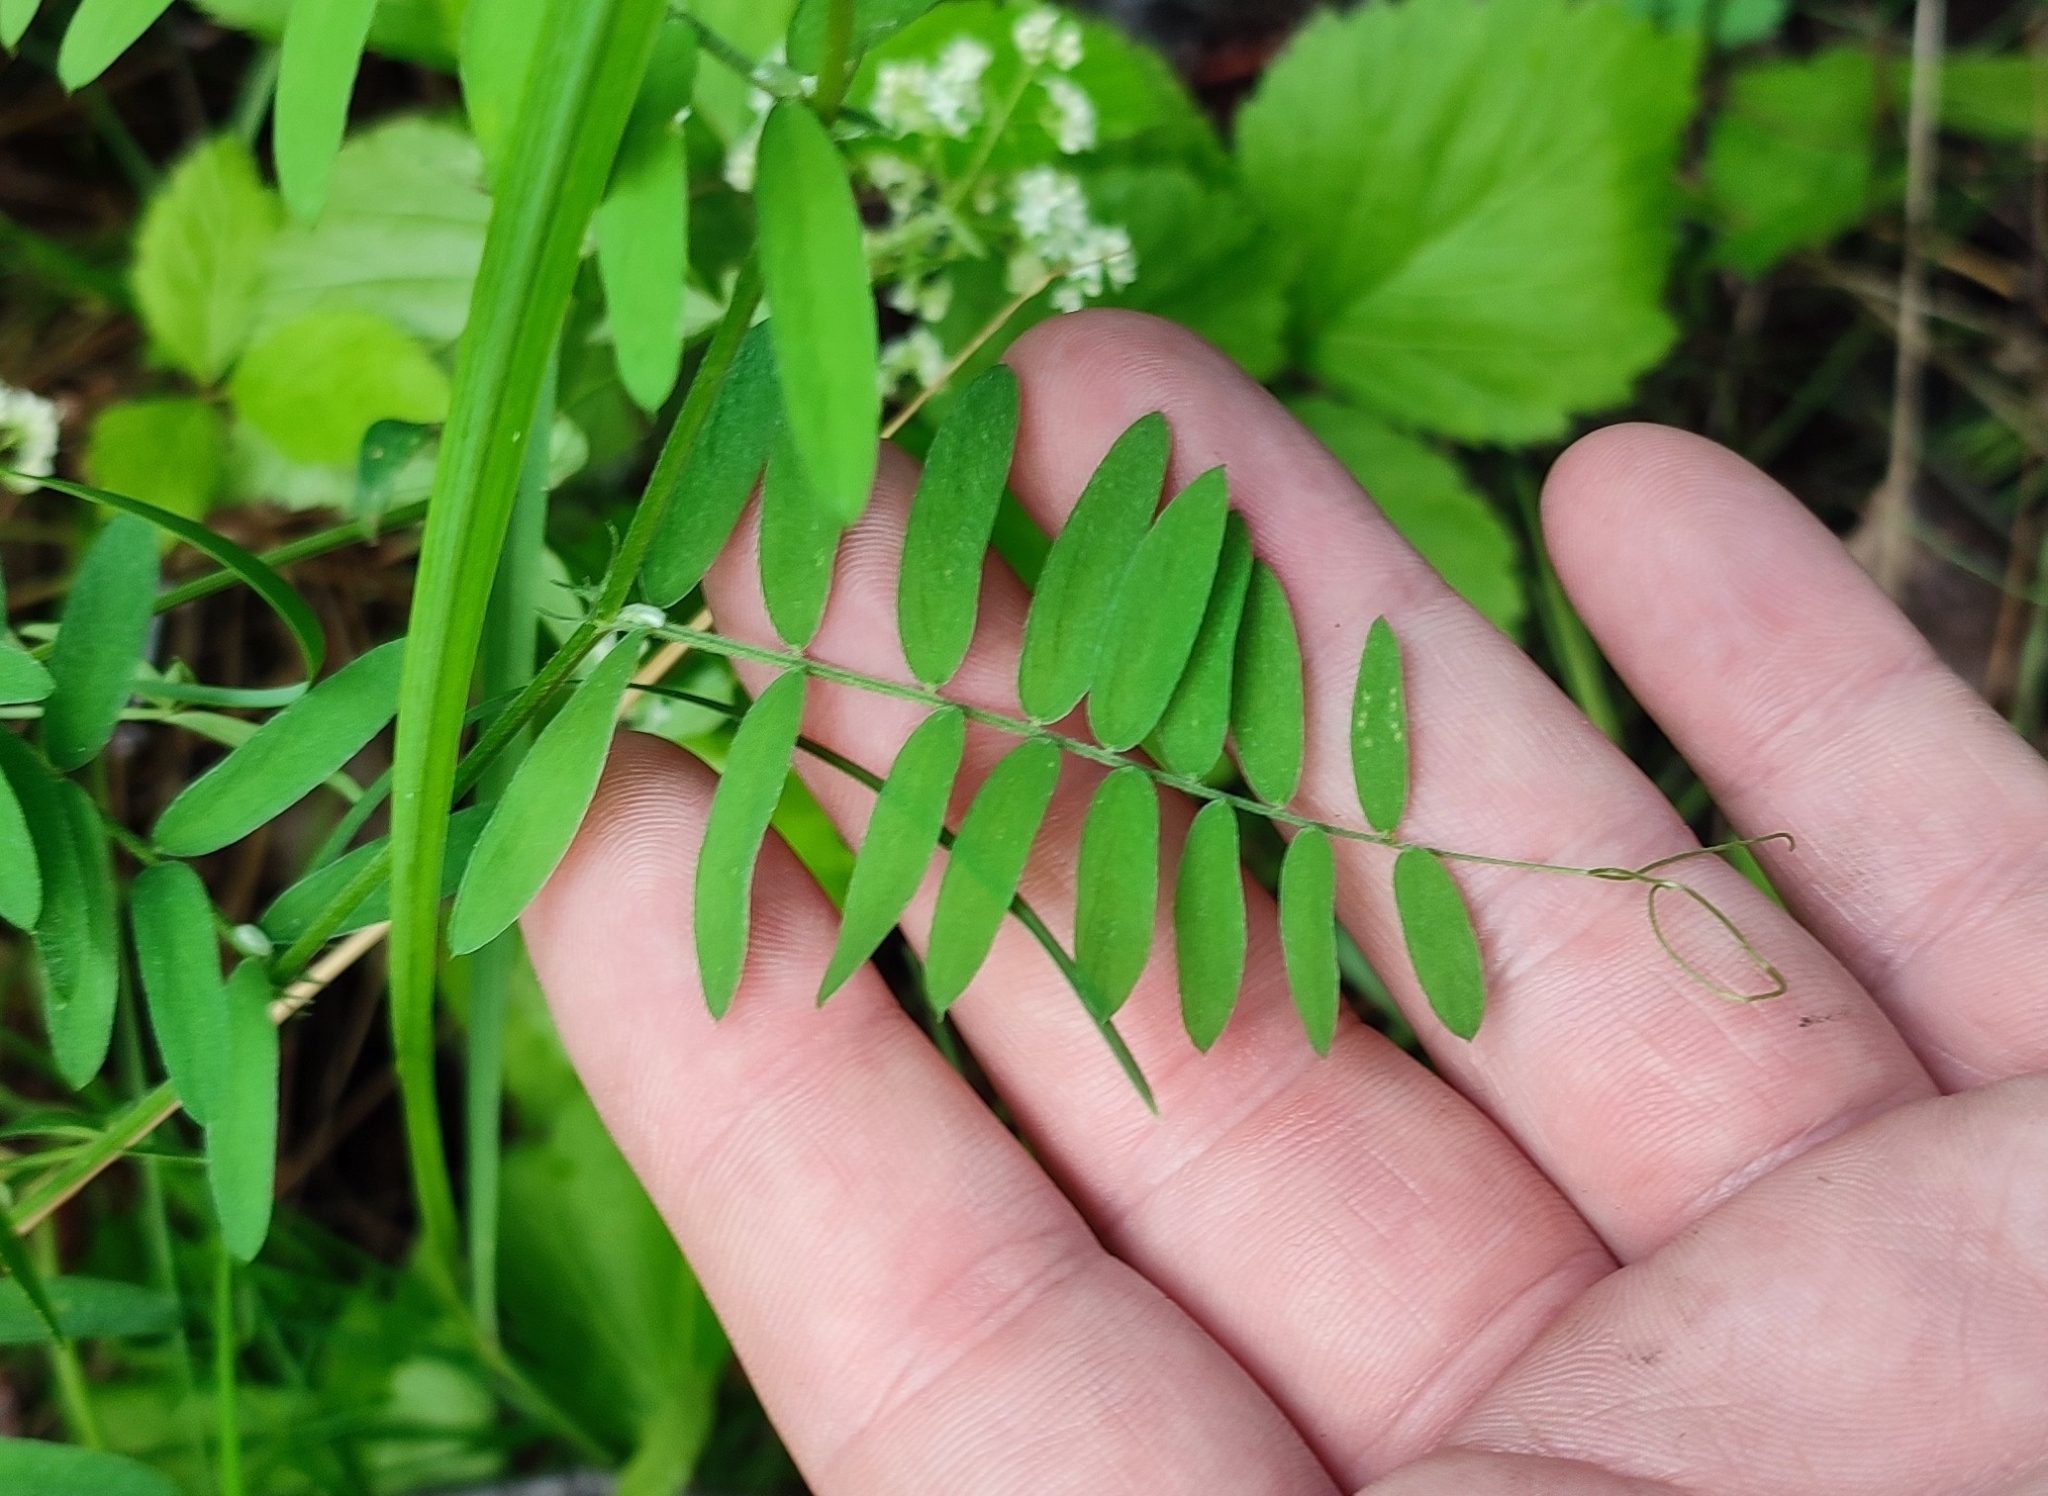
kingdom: Plantae
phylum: Tracheophyta
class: Magnoliopsida
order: Fabales
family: Fabaceae
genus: Vicia
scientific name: Vicia cracca
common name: Bird vetch
